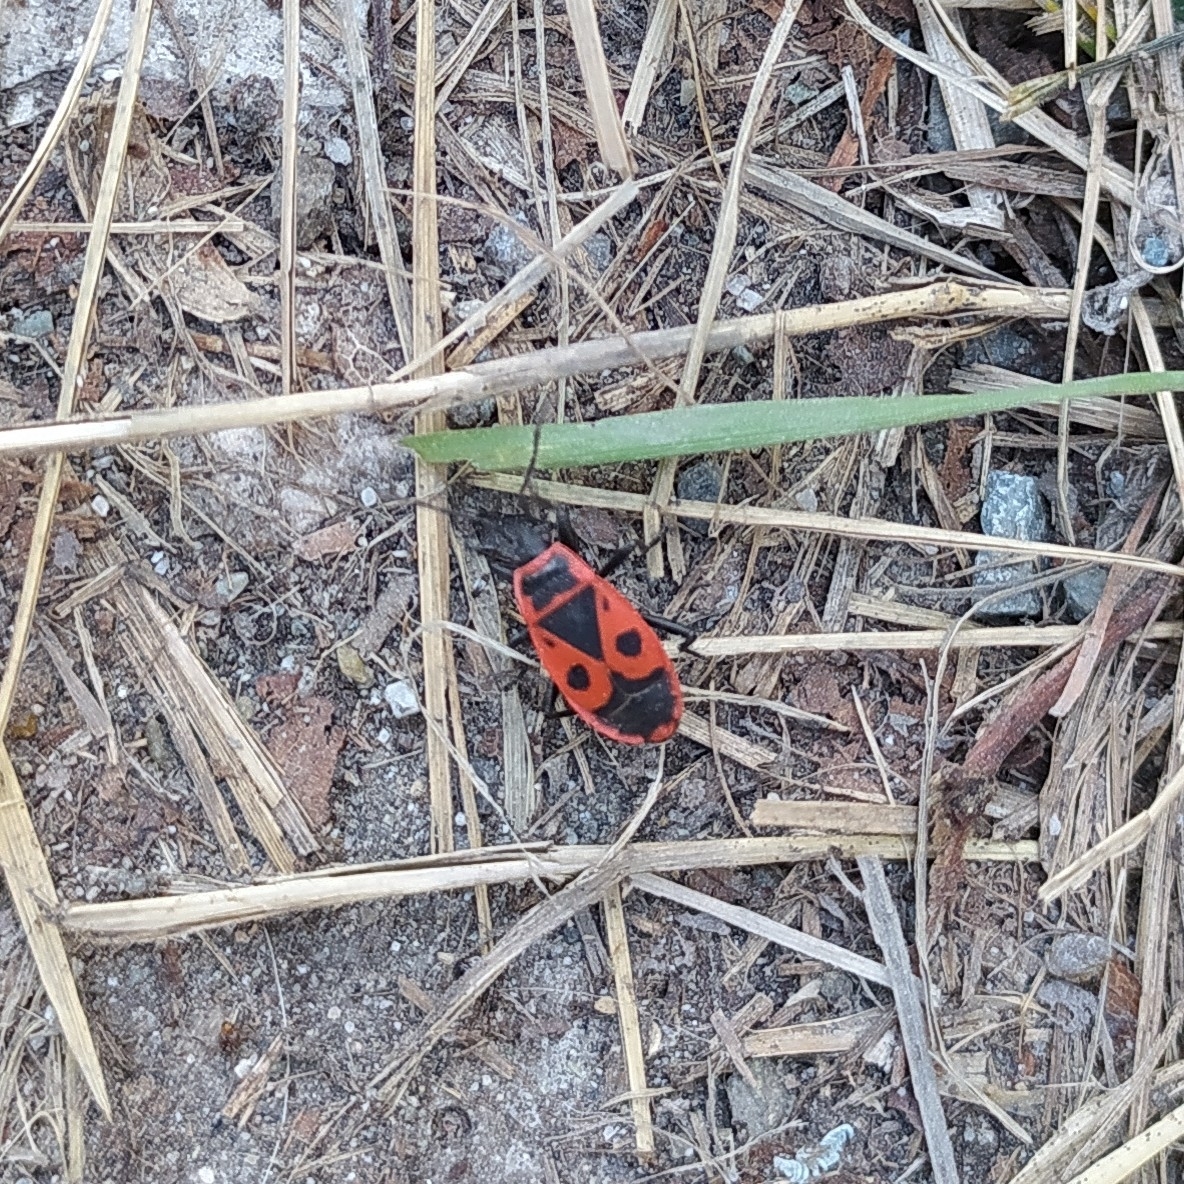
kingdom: Animalia
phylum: Arthropoda
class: Insecta
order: Hemiptera
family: Pyrrhocoridae
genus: Pyrrhocoris
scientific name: Pyrrhocoris apterus
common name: Firebug
